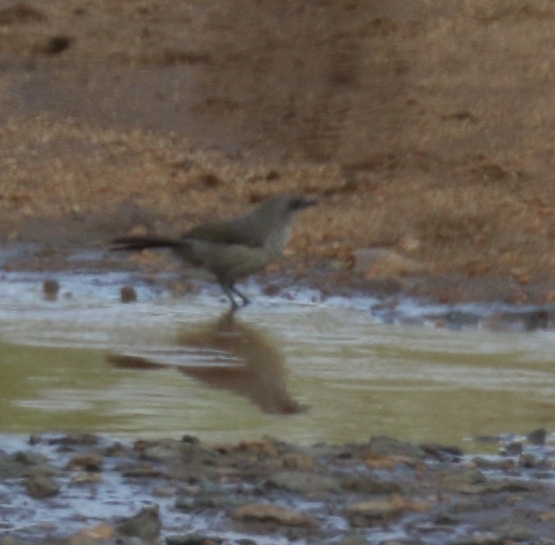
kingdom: Animalia
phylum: Chordata
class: Aves
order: Passeriformes
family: Leiothrichidae
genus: Turdoides
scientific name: Turdoides jardineii
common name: Arrow-marked babbler
